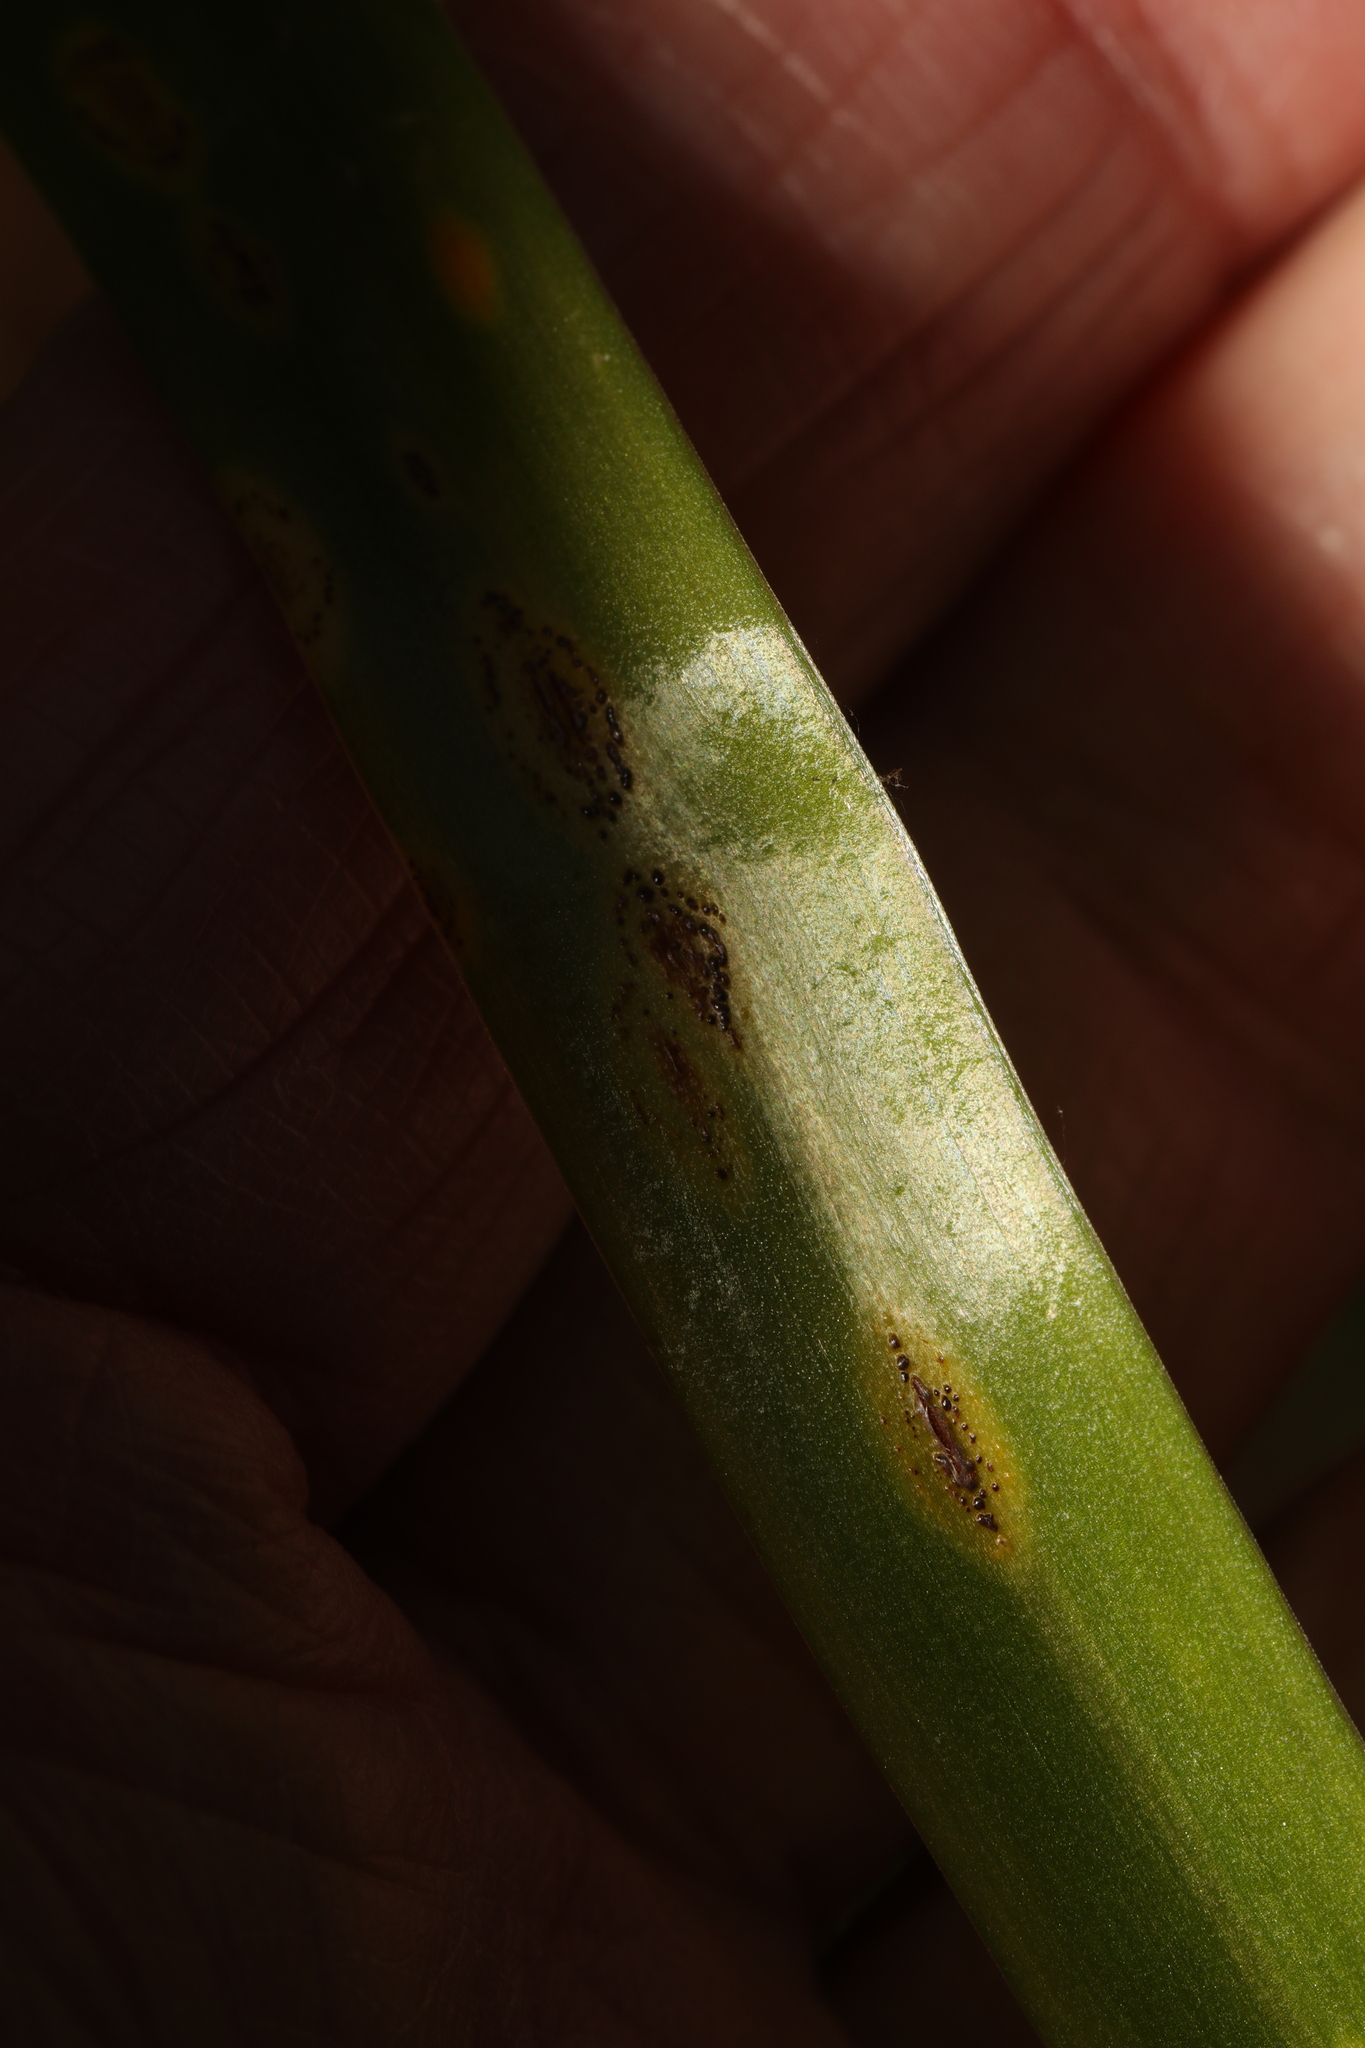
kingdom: Fungi
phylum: Basidiomycota
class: Pucciniomycetes
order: Pucciniales
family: Pucciniaceae
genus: Uromyces
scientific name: Uromyces hyacinthi
